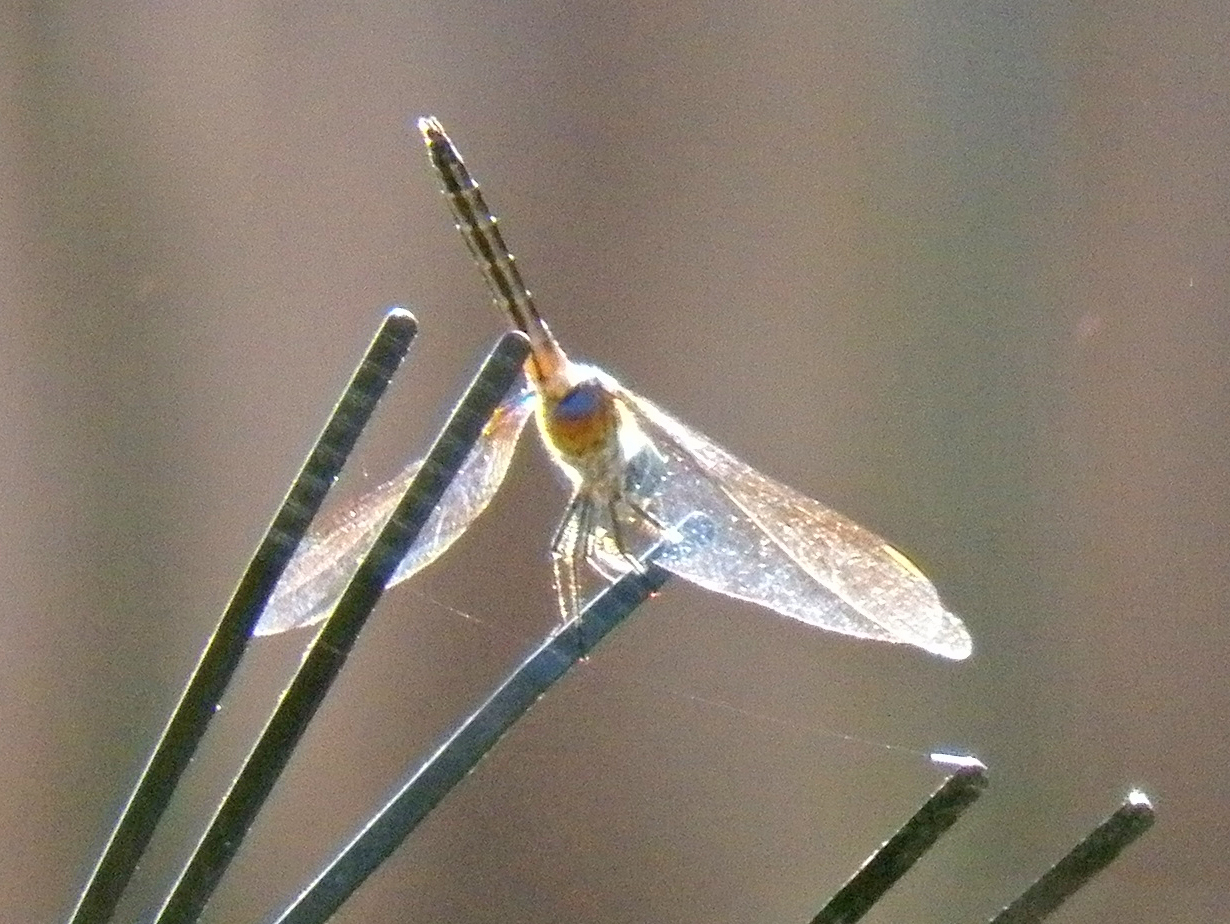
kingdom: Animalia
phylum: Arthropoda
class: Insecta
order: Odonata
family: Libellulidae
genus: Pachydiplax
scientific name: Pachydiplax longipennis
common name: Blue dasher
